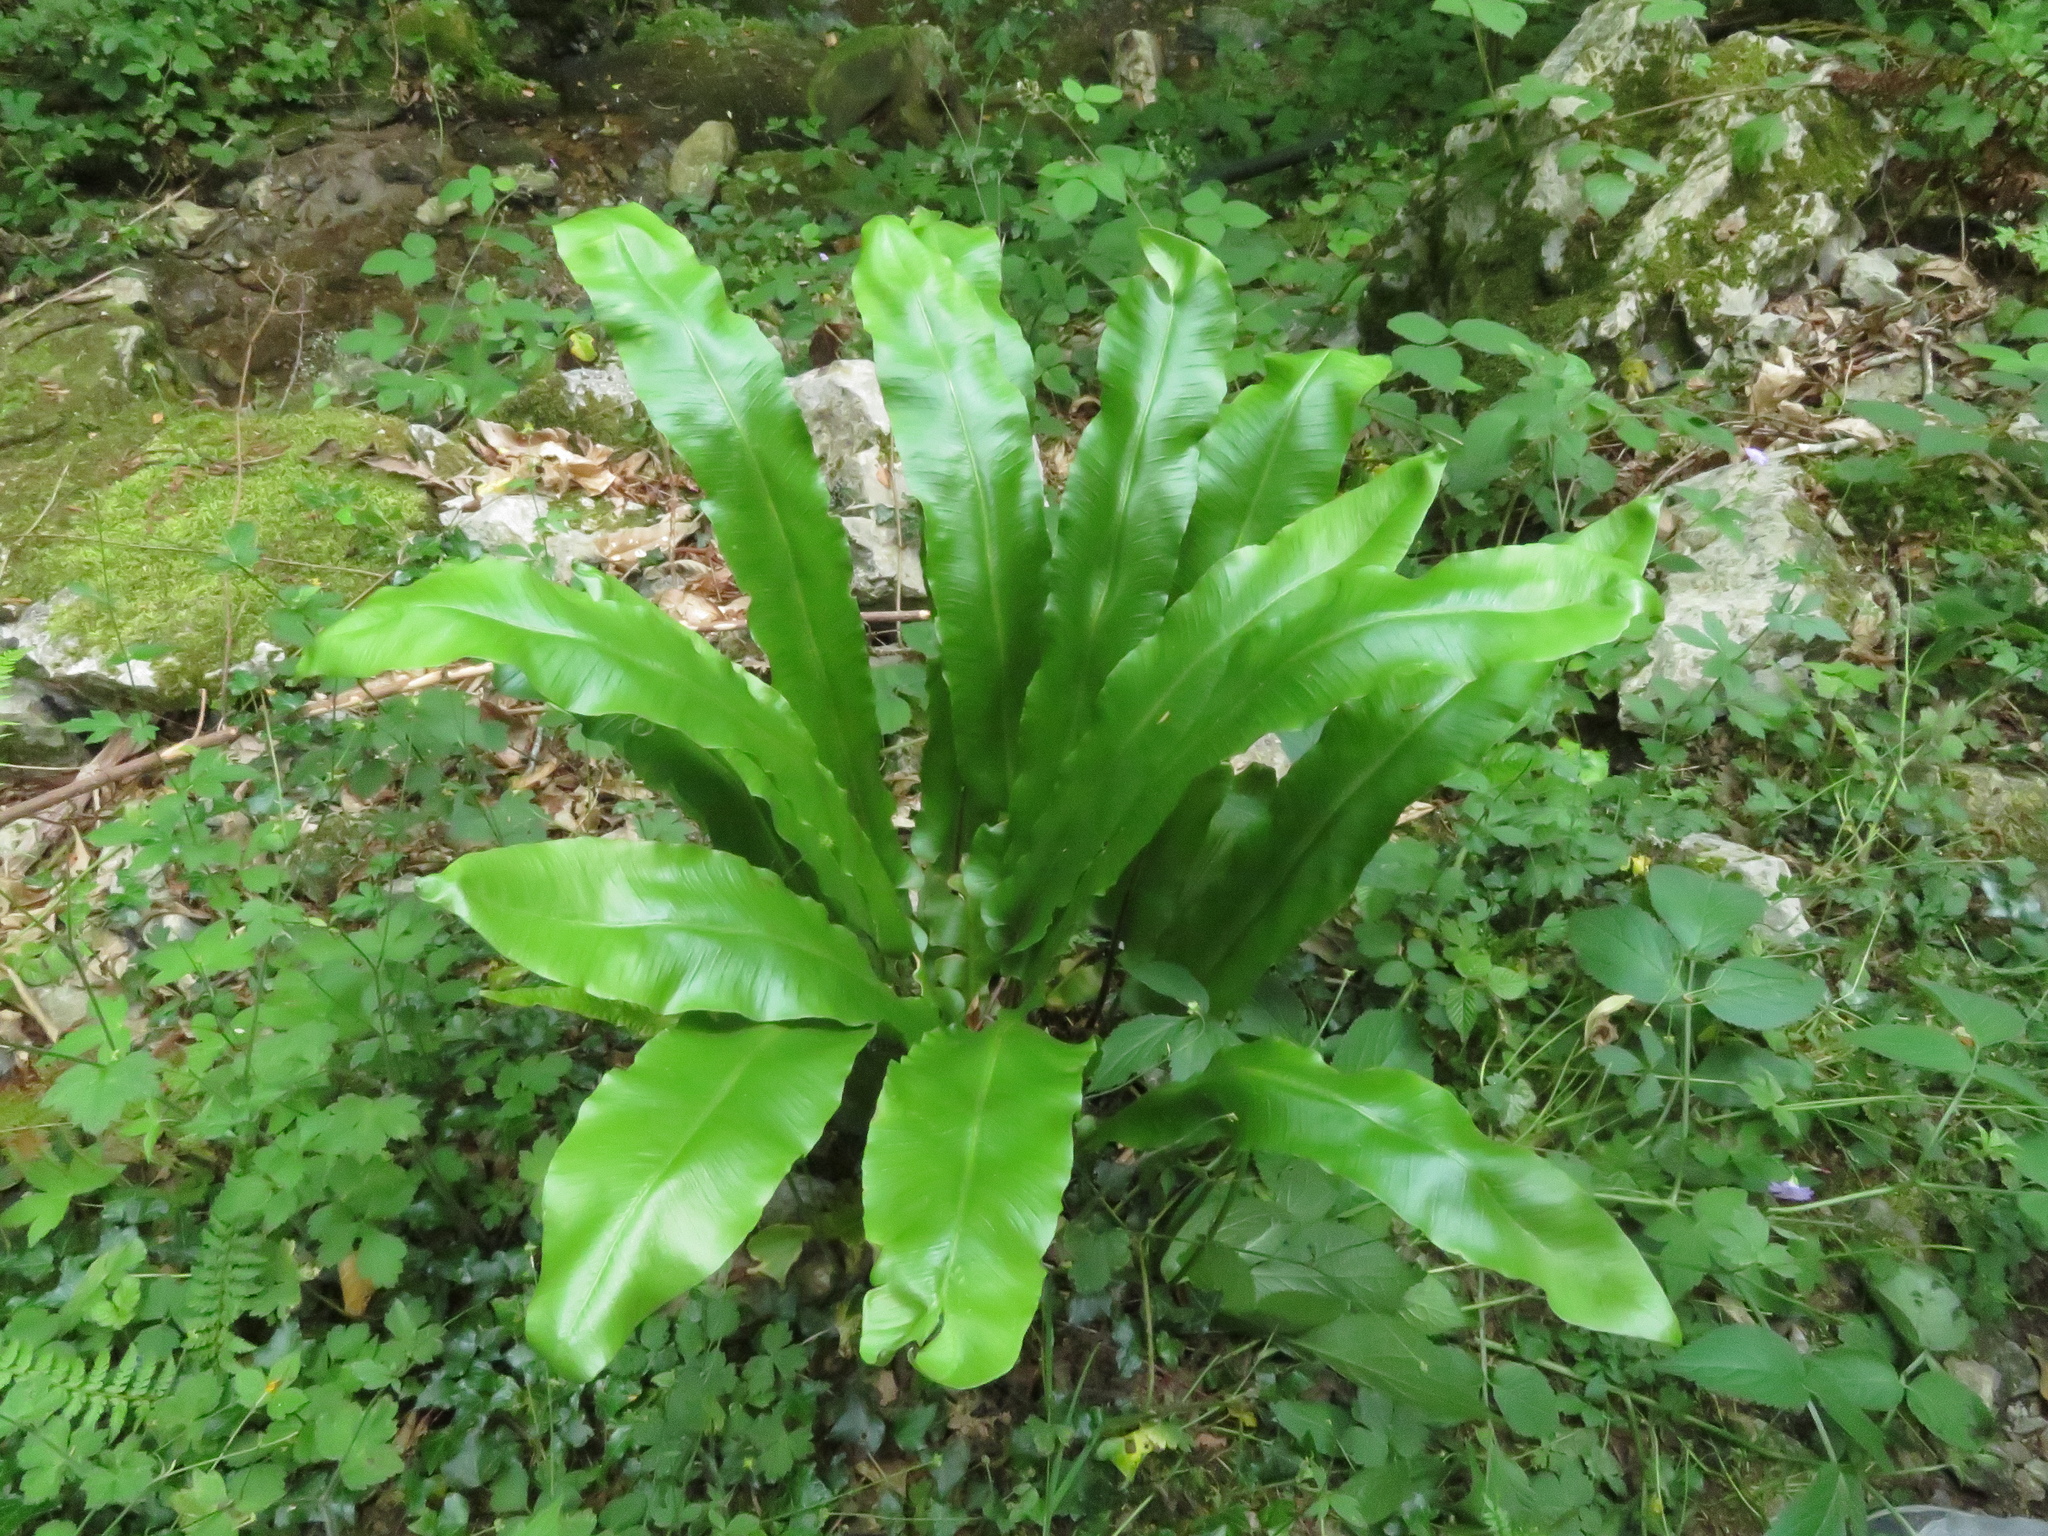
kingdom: Plantae
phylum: Tracheophyta
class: Polypodiopsida
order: Polypodiales
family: Aspleniaceae
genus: Asplenium
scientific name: Asplenium scolopendrium
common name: Hart's-tongue fern
